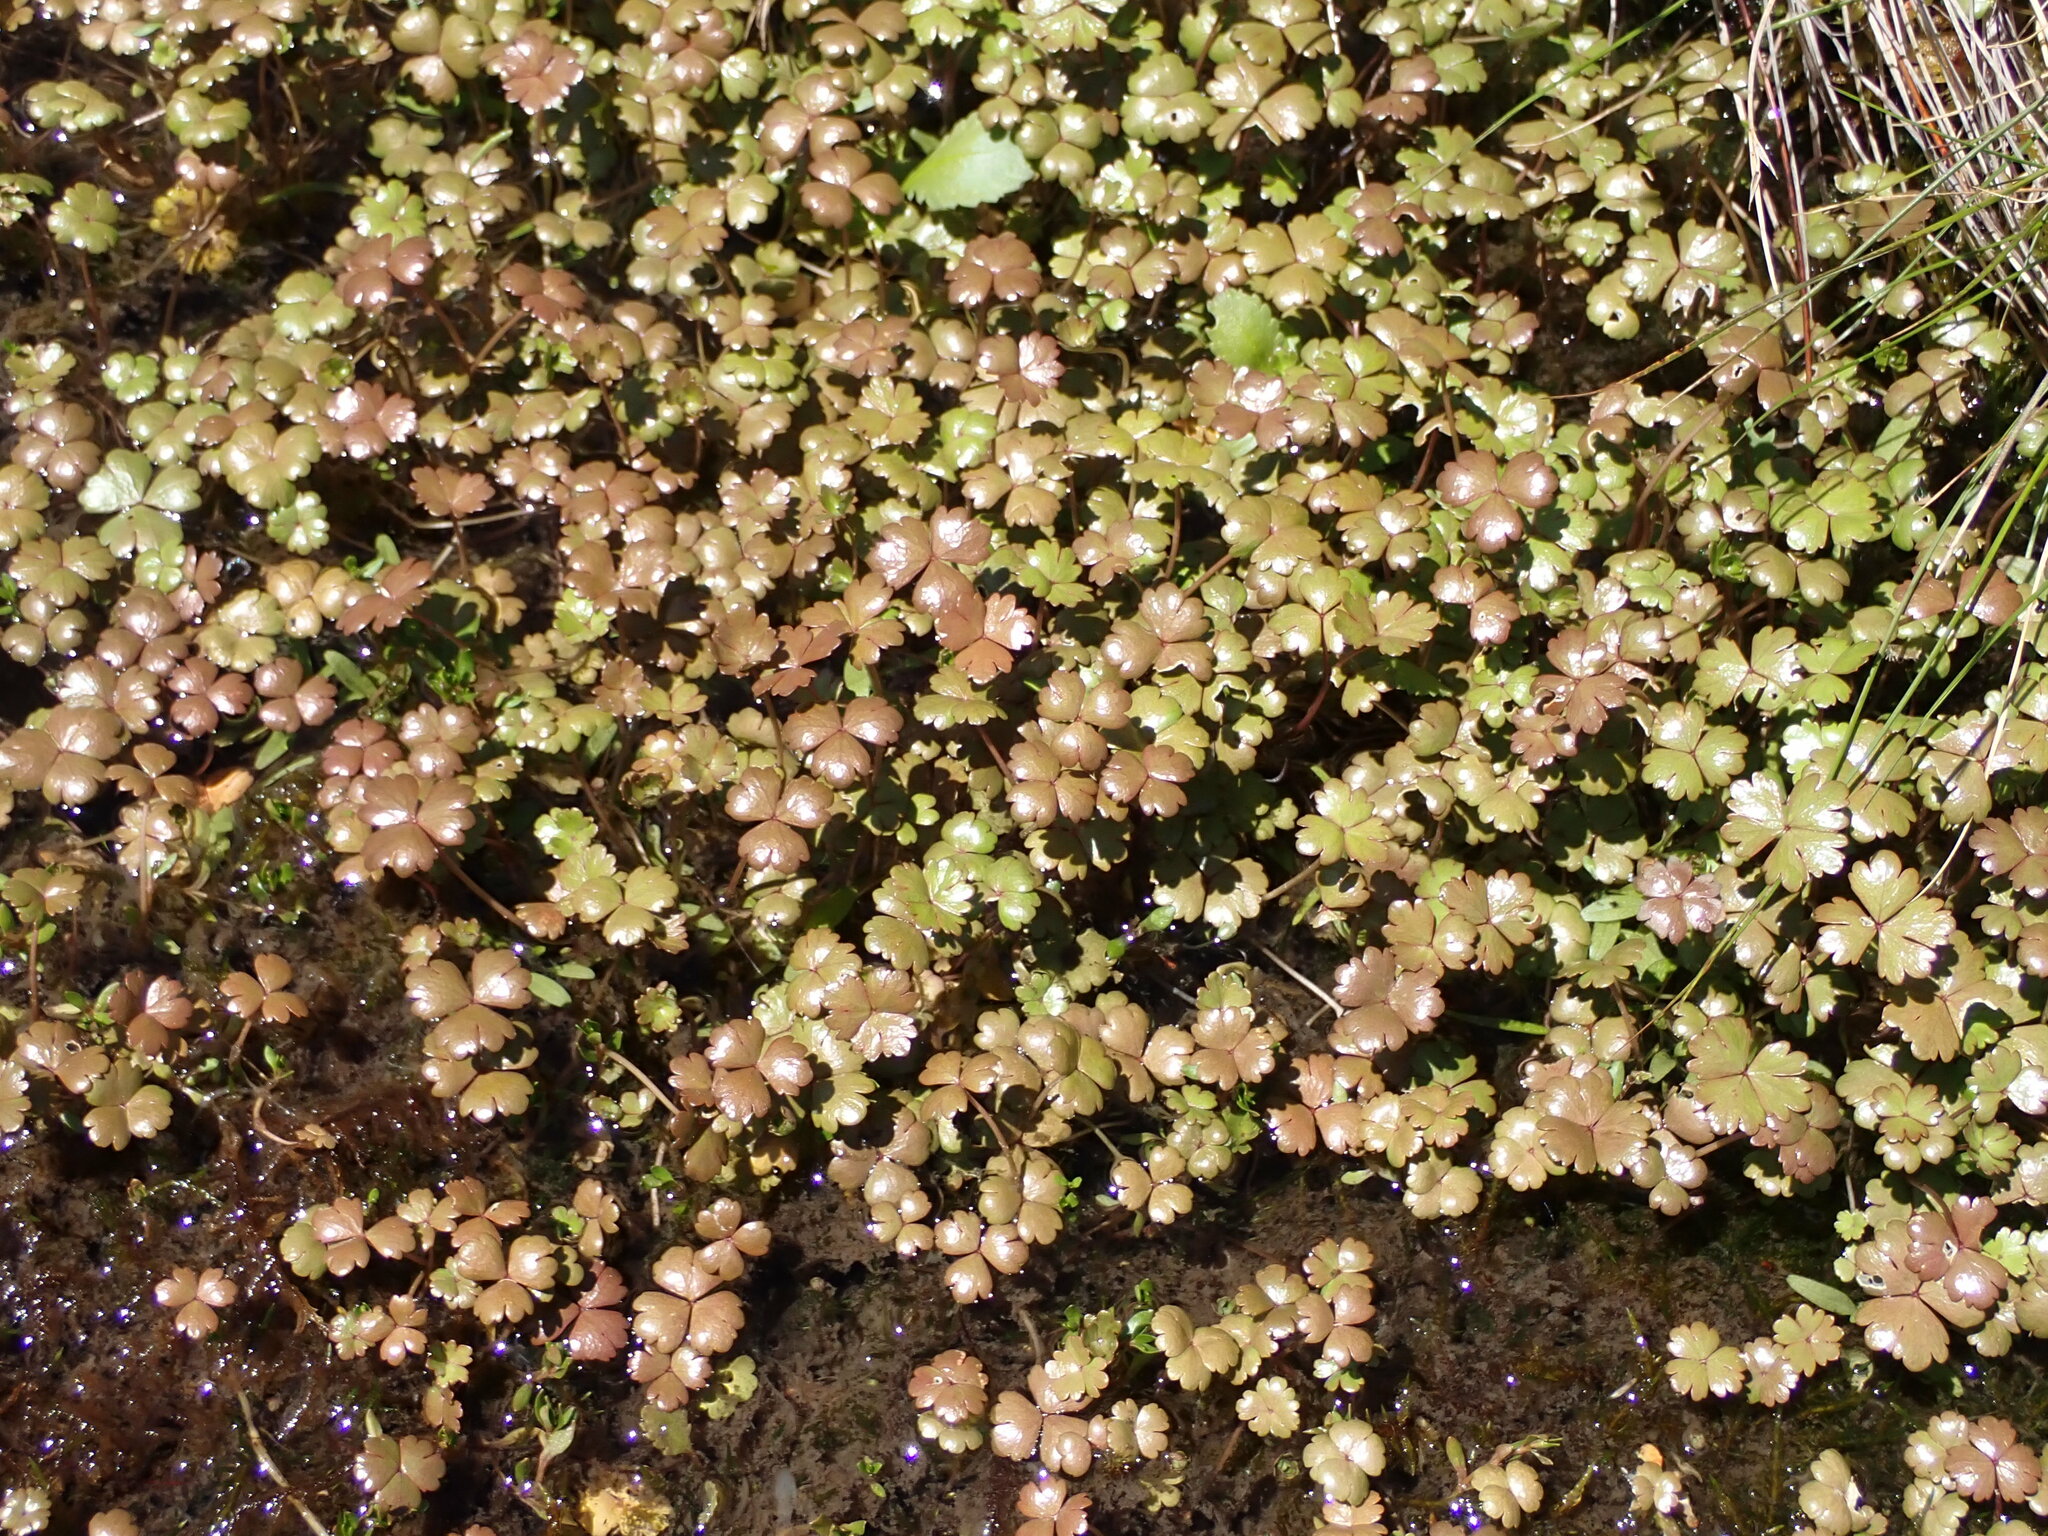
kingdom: Plantae
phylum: Tracheophyta
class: Magnoliopsida
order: Apiales
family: Araliaceae
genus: Hydrocotyle
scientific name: Hydrocotyle sulcata
